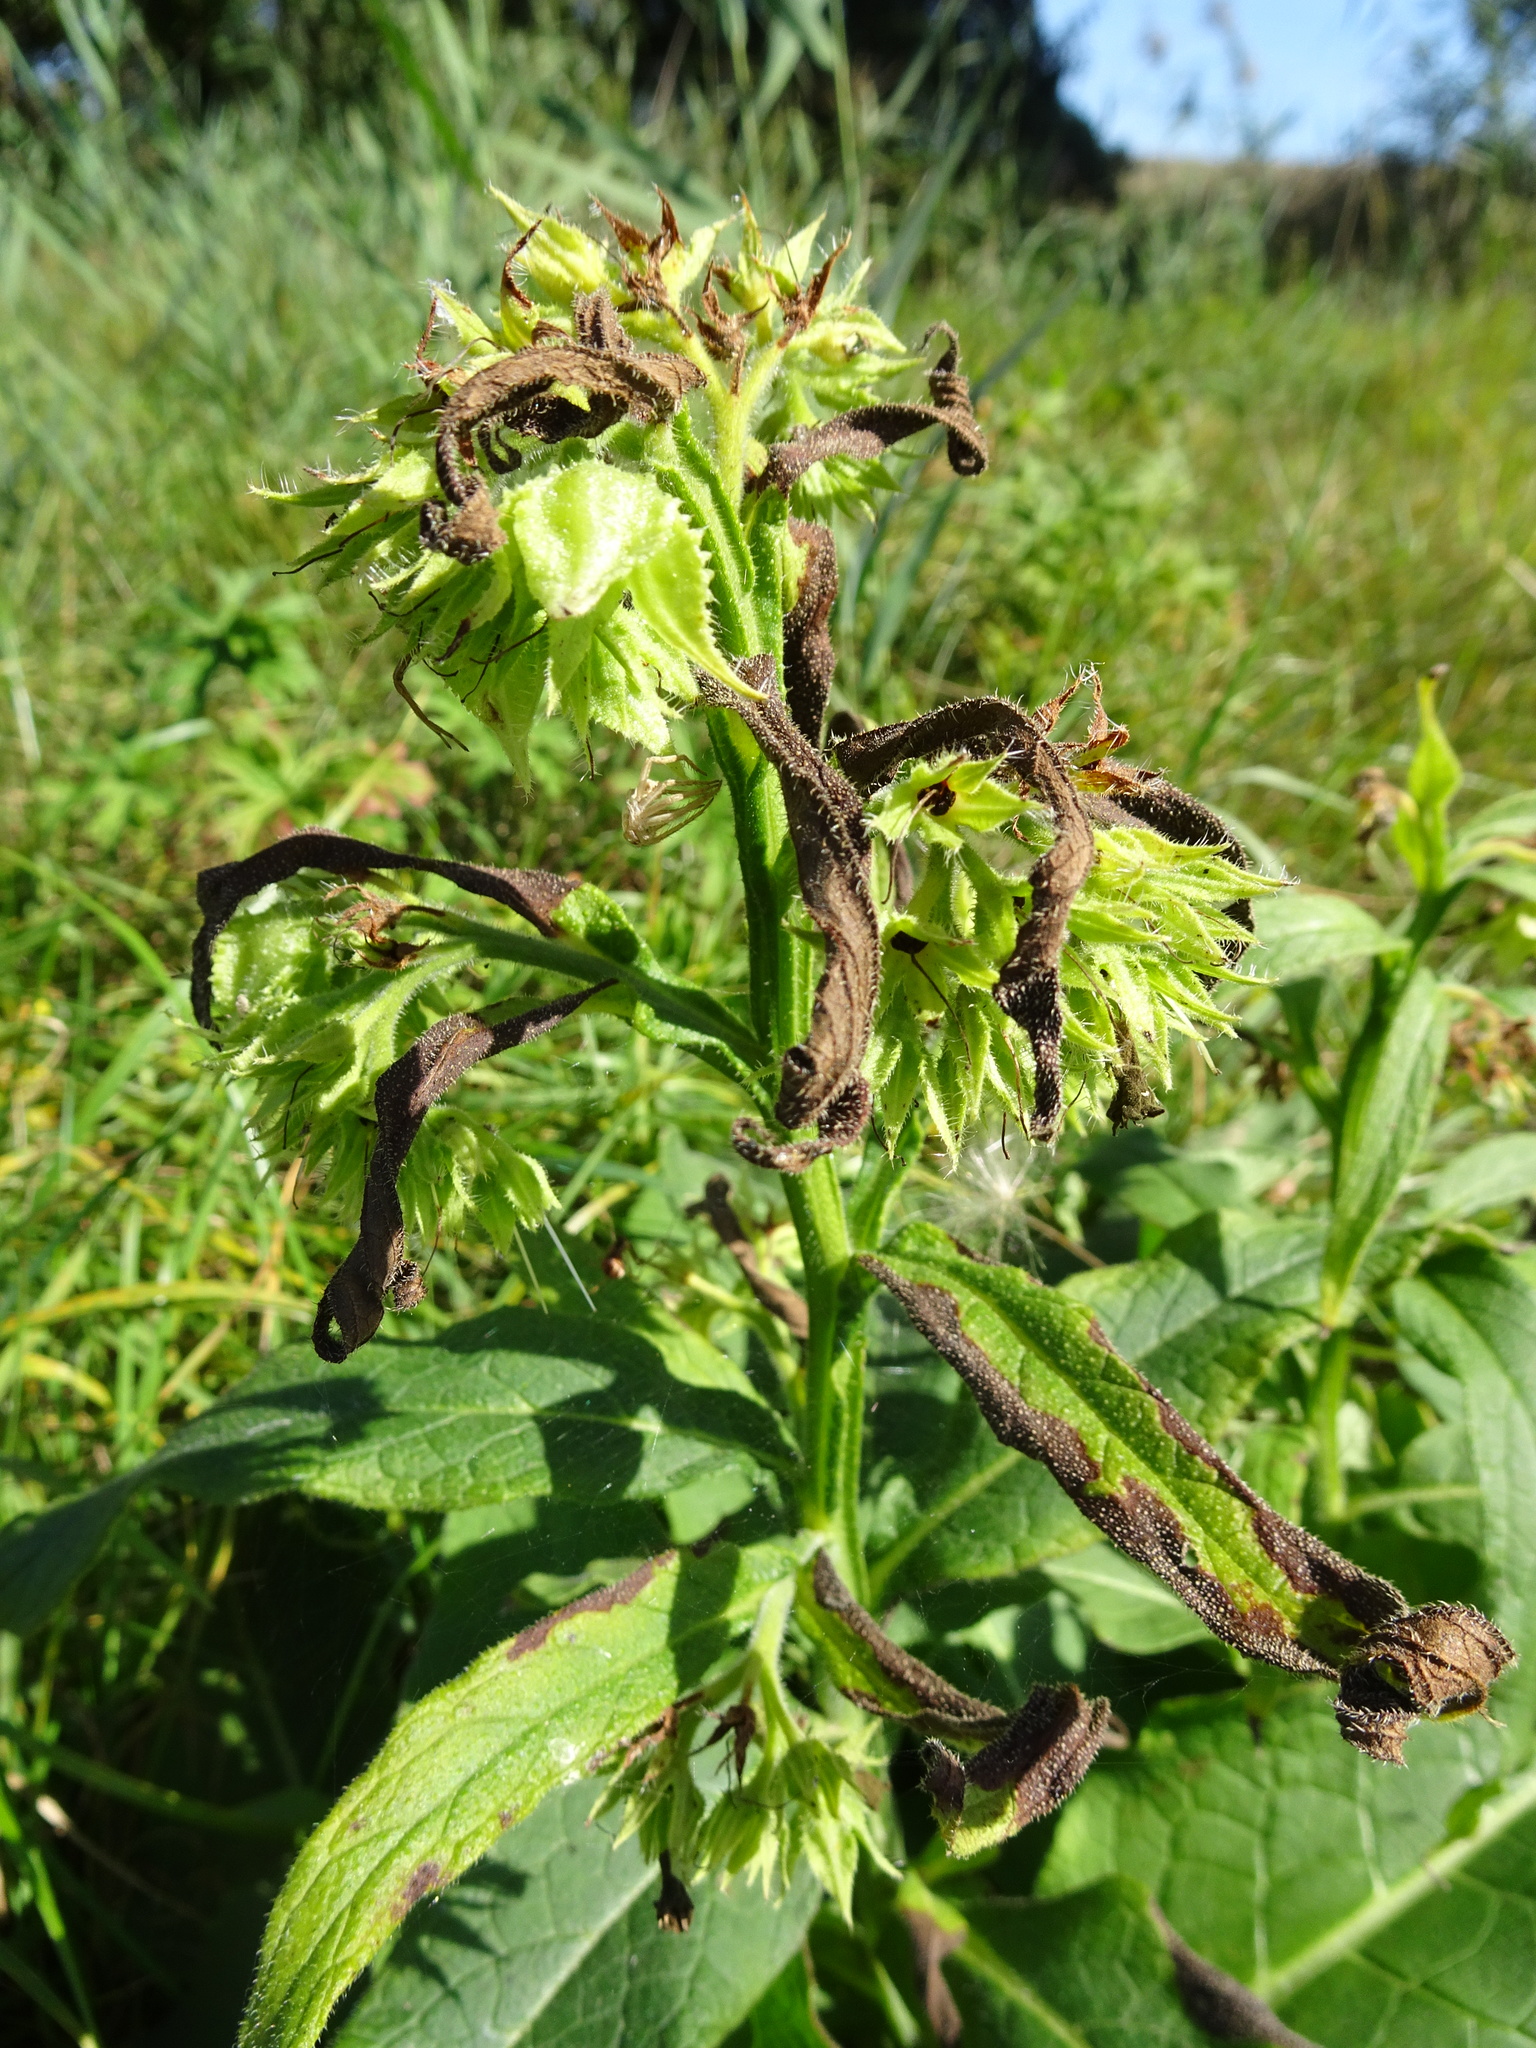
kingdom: Plantae
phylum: Tracheophyta
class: Magnoliopsida
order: Boraginales
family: Boraginaceae
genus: Symphytum
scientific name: Symphytum officinale
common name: Common comfrey
